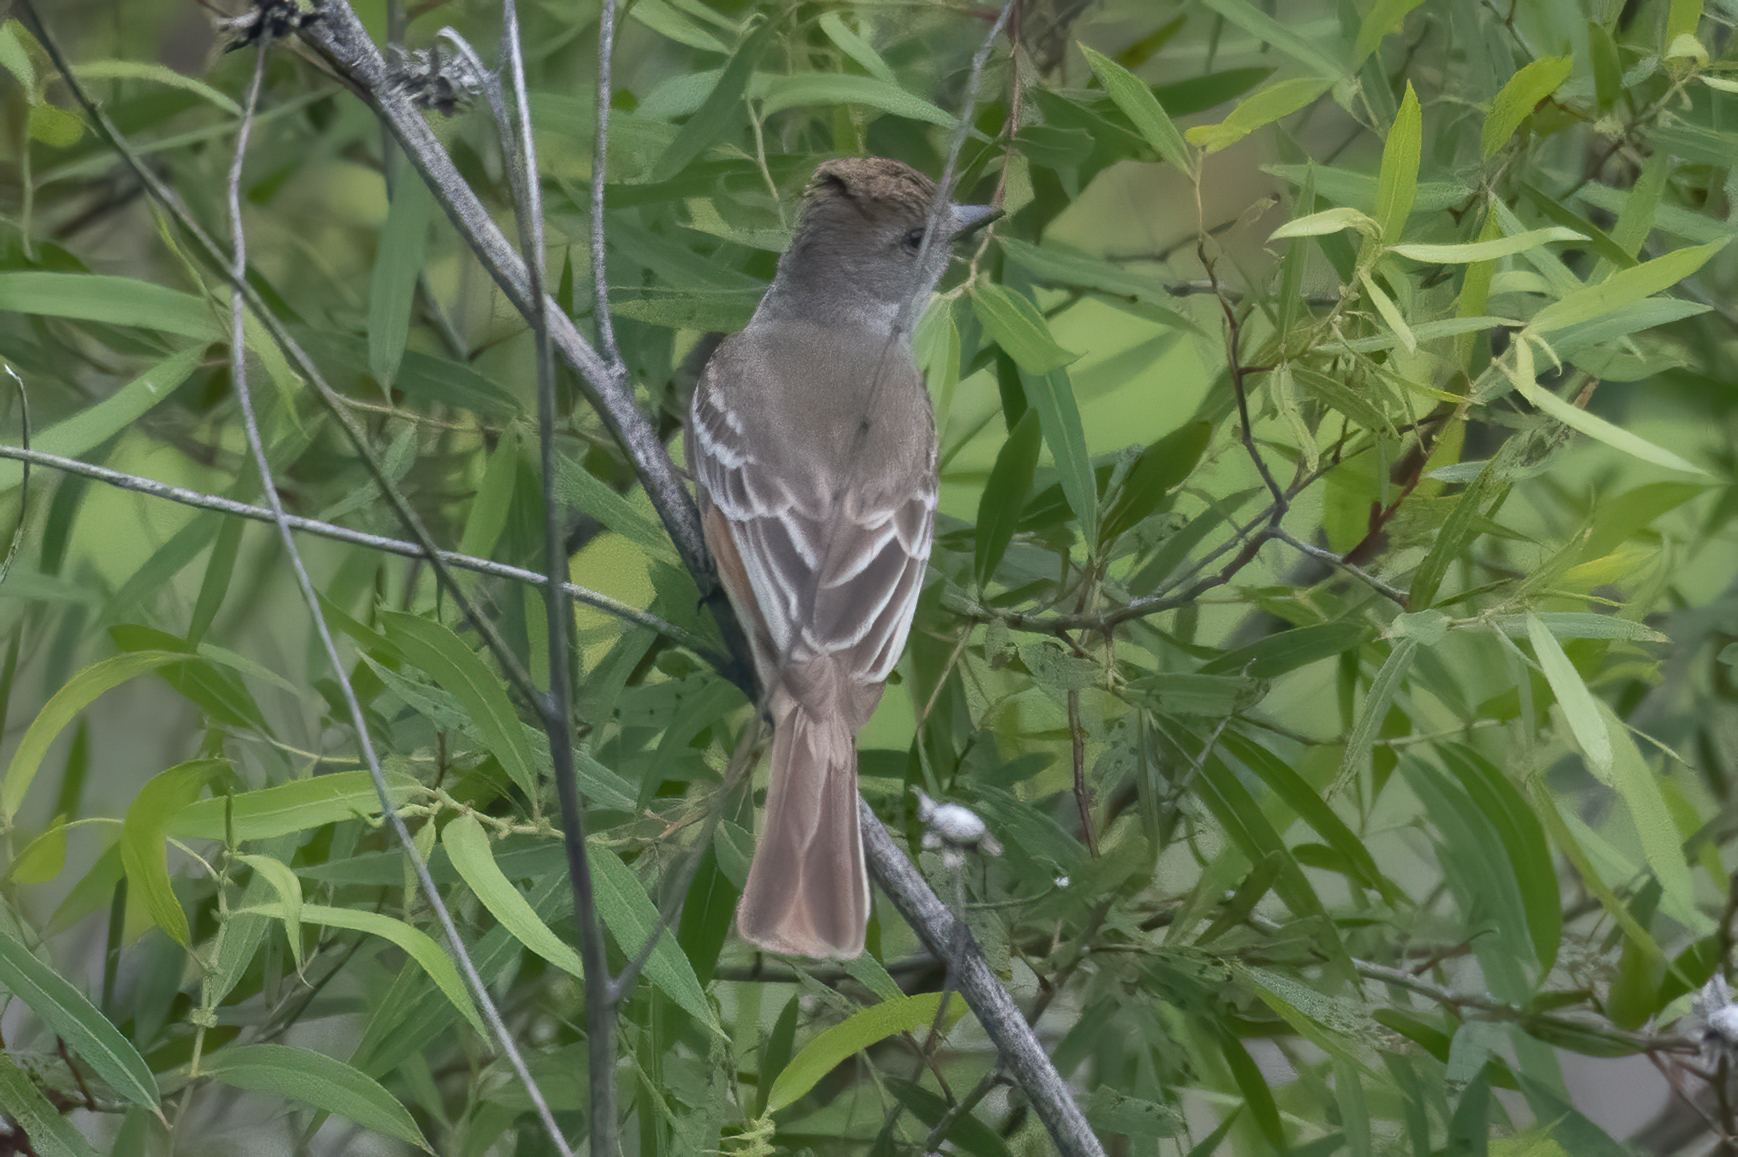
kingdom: Animalia
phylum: Chordata
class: Aves
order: Passeriformes
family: Tyrannidae
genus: Myiarchus
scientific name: Myiarchus cinerascens
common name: Ash-throated flycatcher
